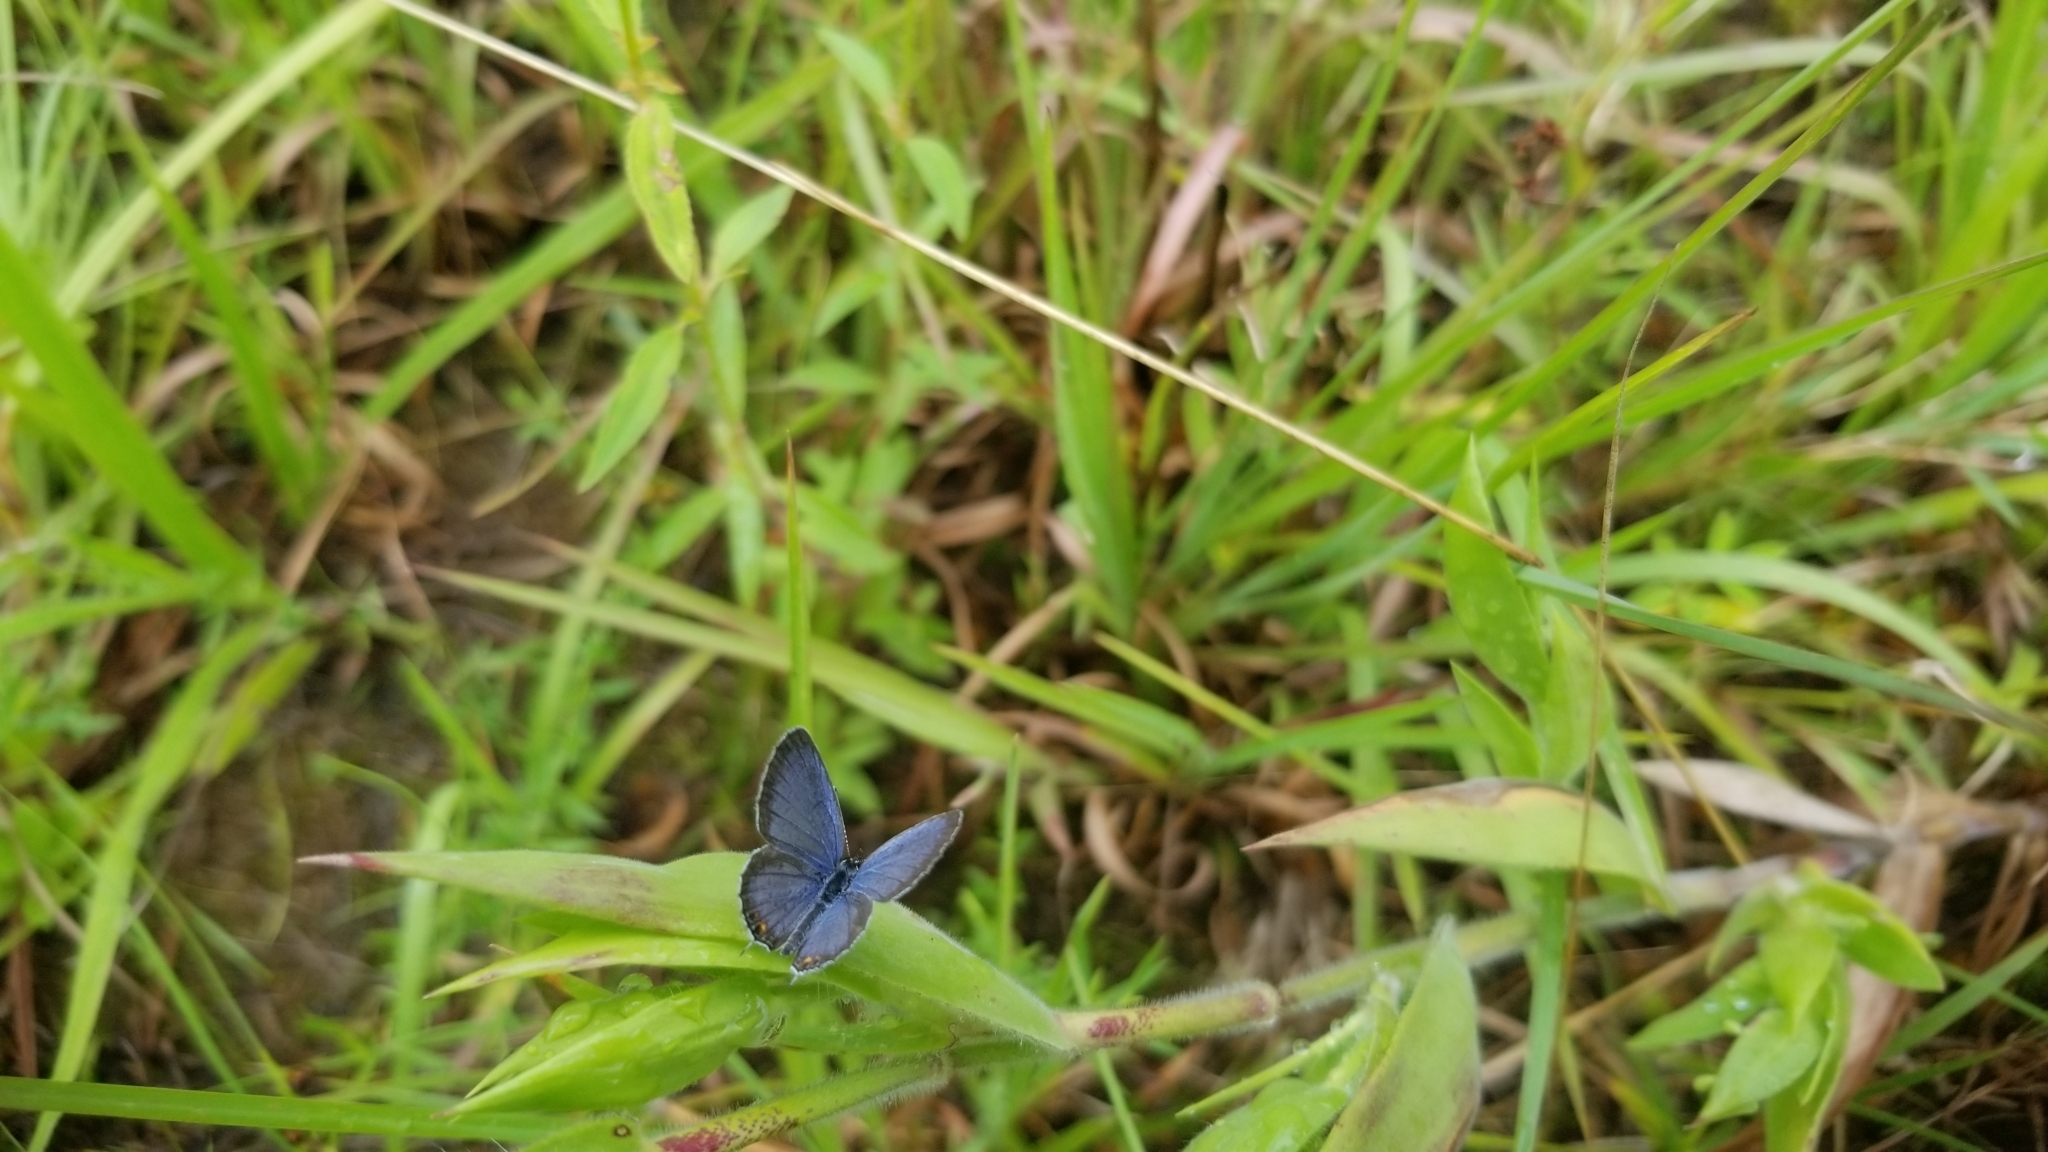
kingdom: Animalia
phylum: Arthropoda
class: Insecta
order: Lepidoptera
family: Lycaenidae
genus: Elkalyce
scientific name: Elkalyce comyntas
